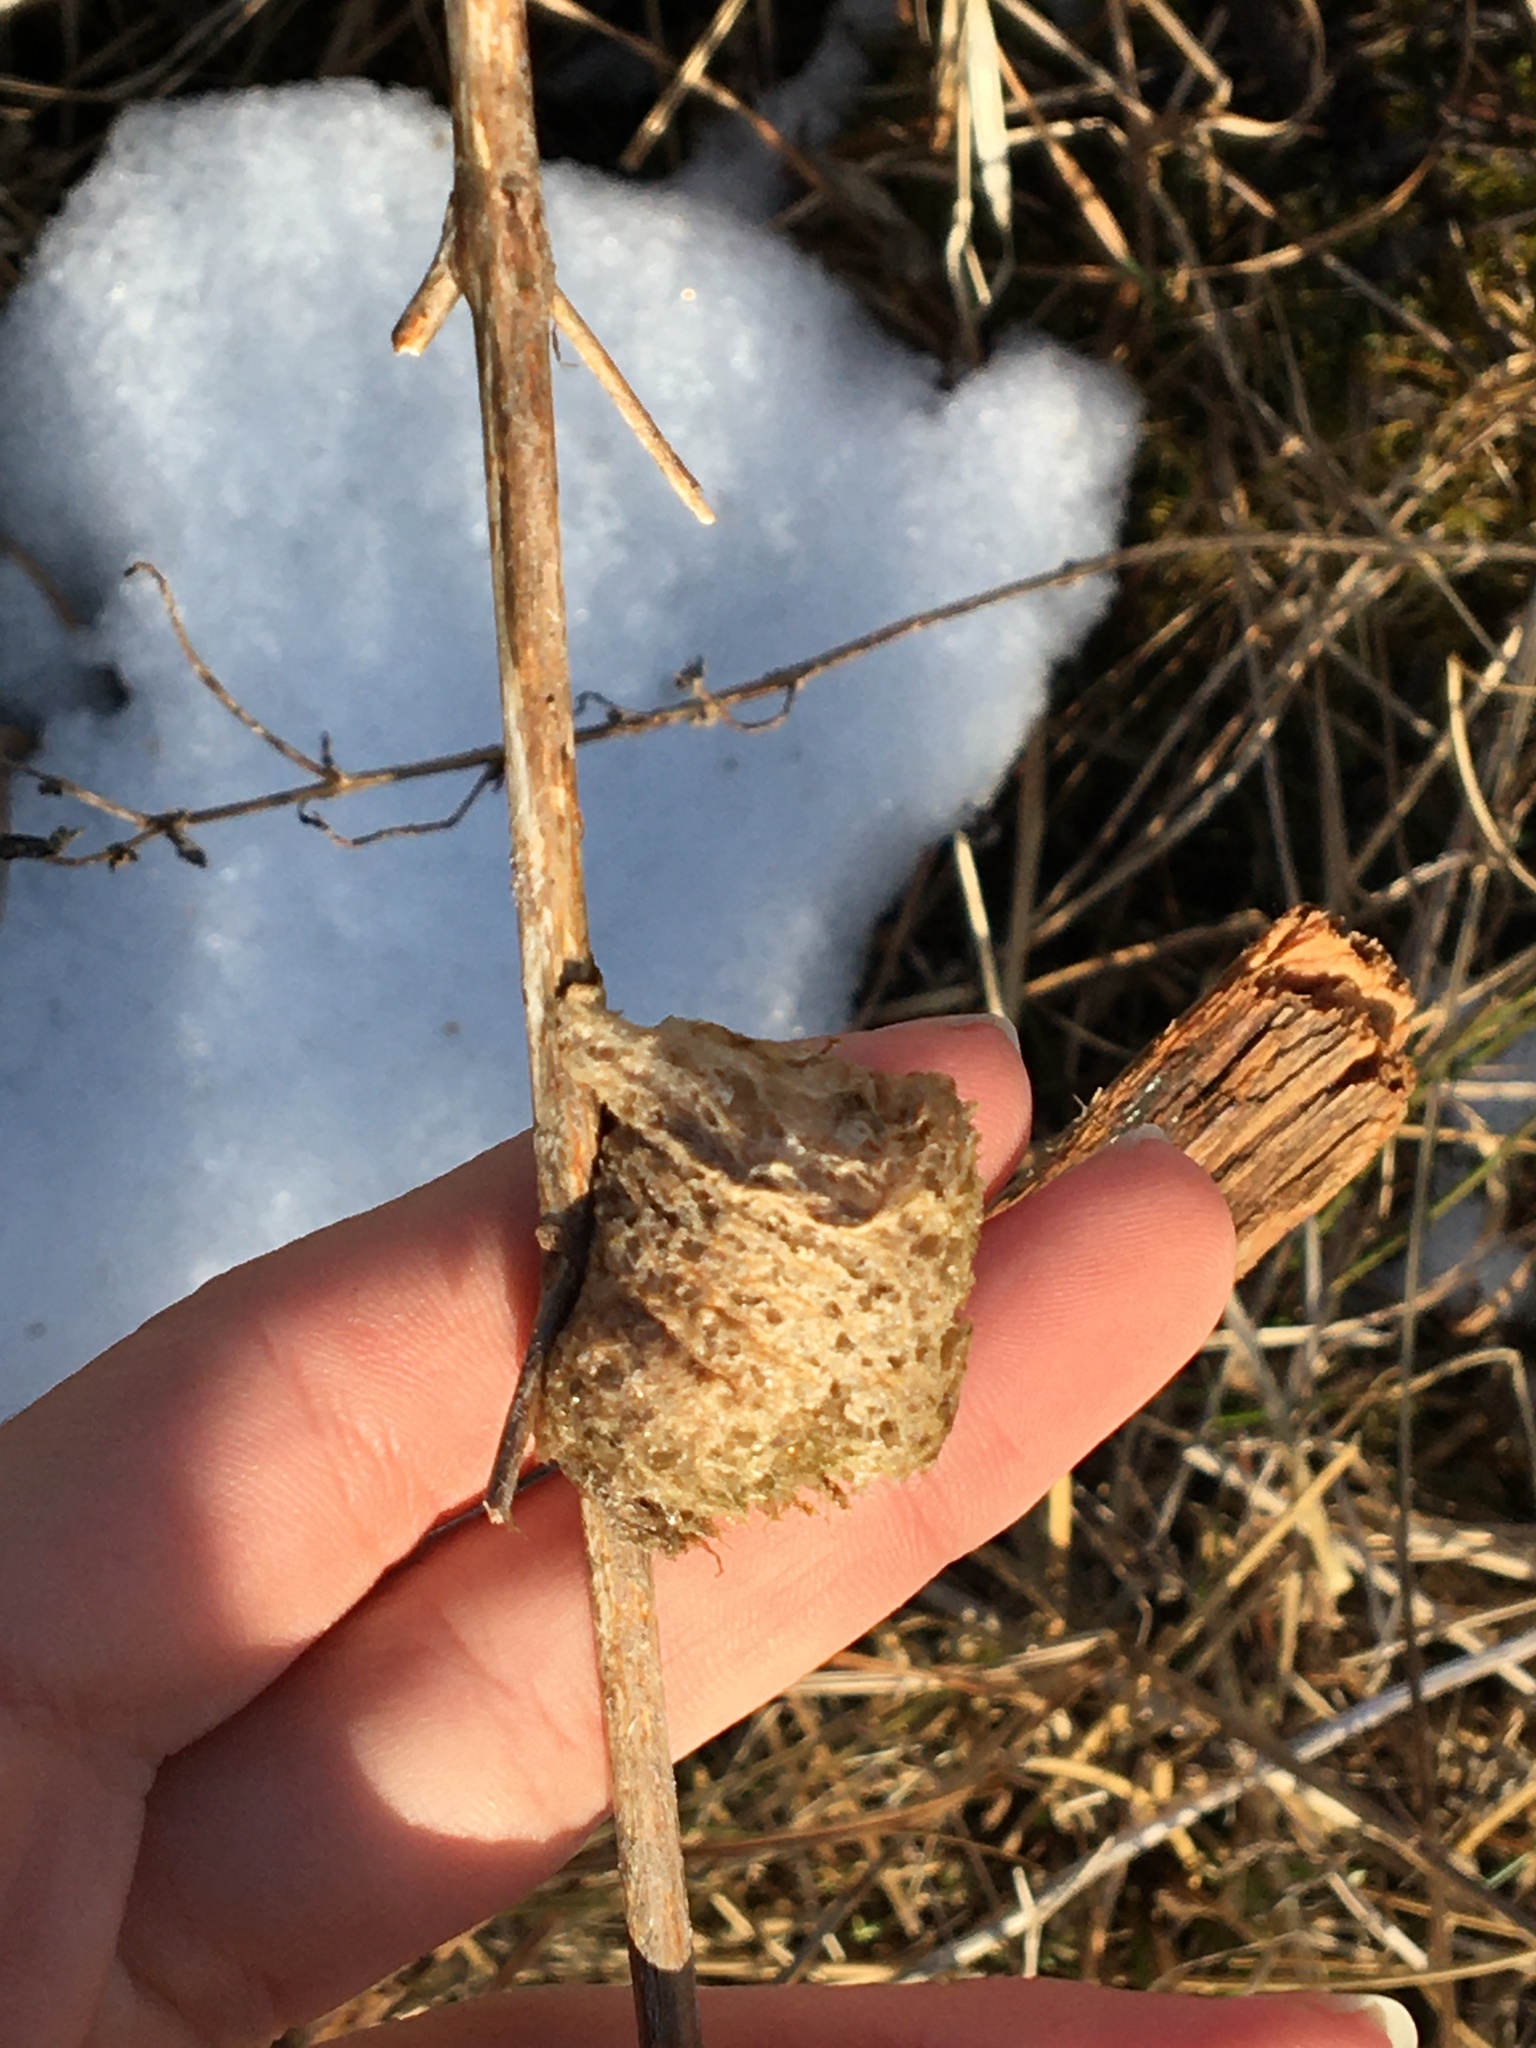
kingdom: Animalia
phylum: Arthropoda
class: Insecta
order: Mantodea
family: Mantidae
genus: Tenodera
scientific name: Tenodera sinensis
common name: Chinese mantis
